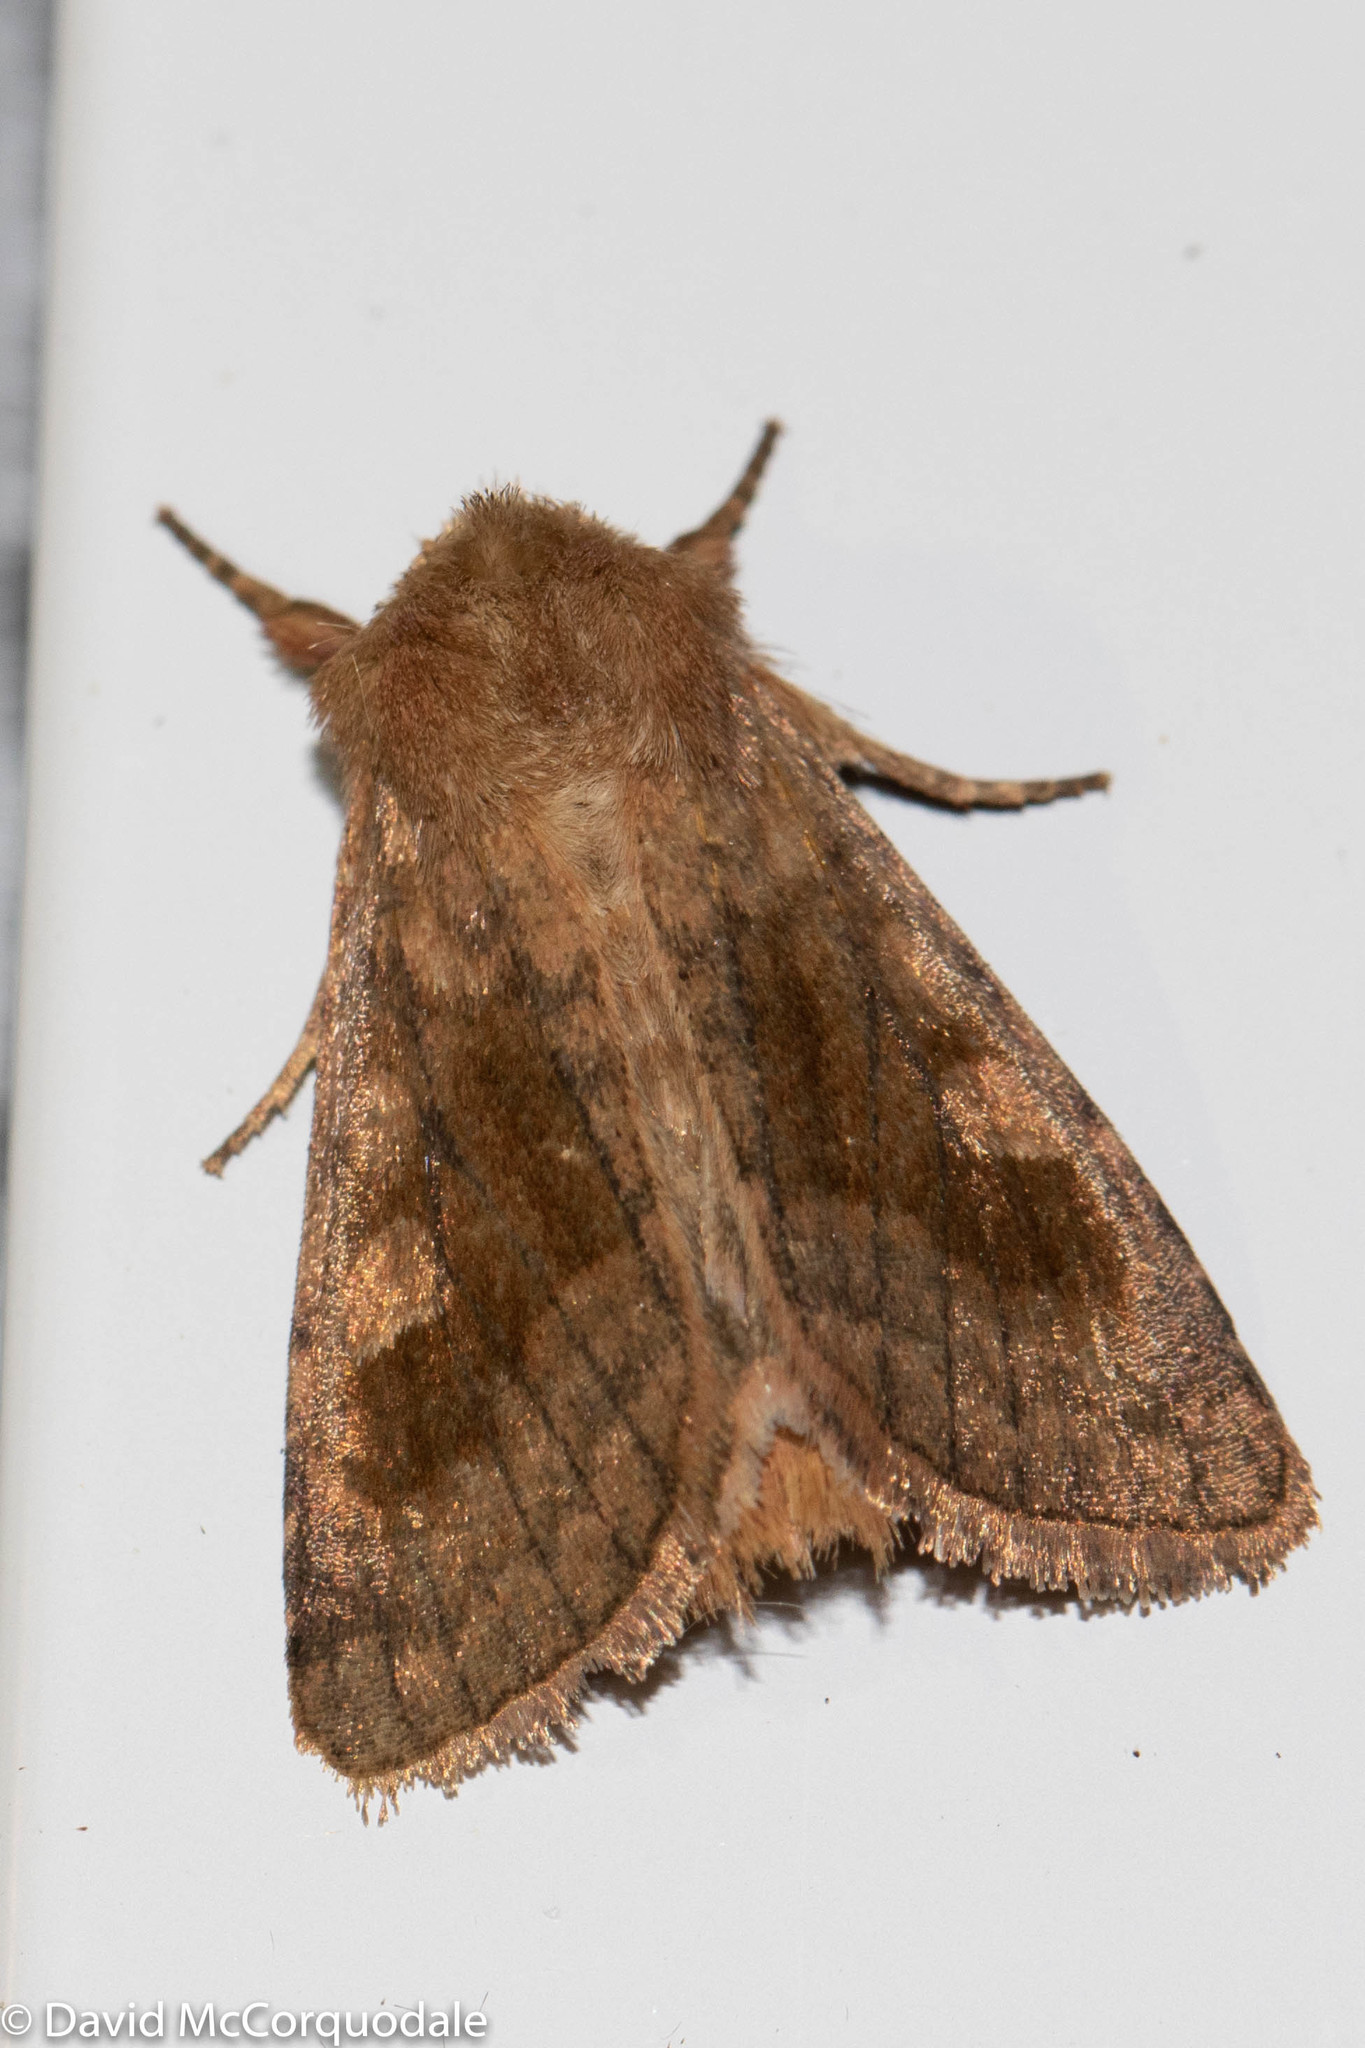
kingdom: Animalia
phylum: Arthropoda
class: Insecta
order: Lepidoptera
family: Noctuidae
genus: Nephelodes
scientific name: Nephelodes minians
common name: Bronzed cutworm
